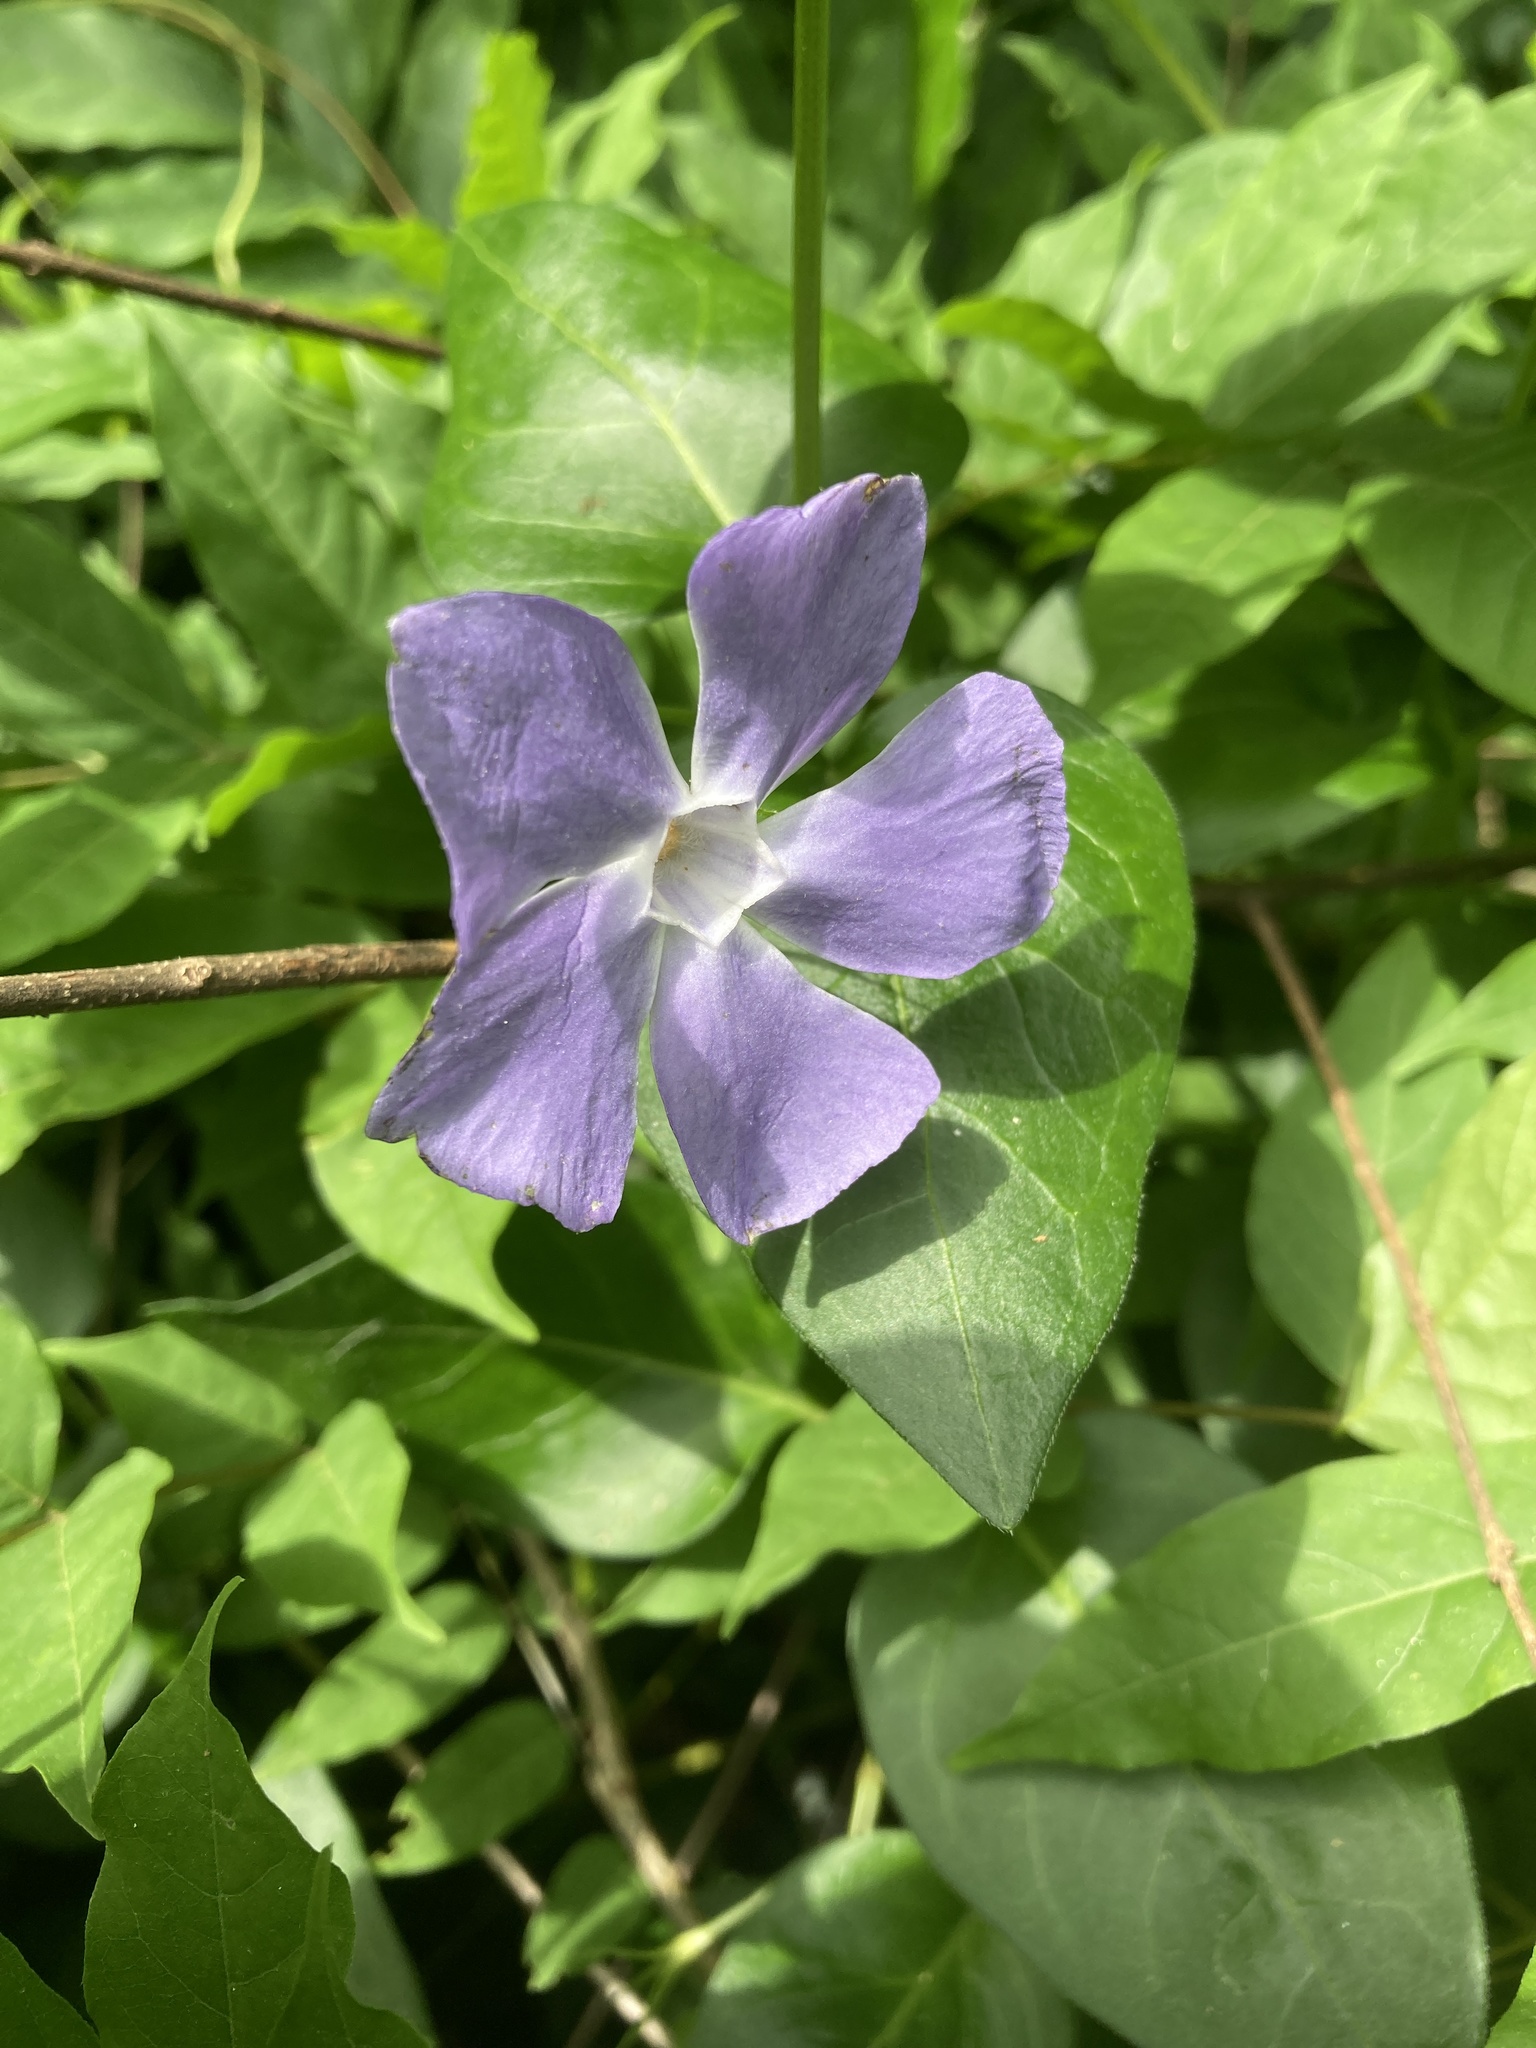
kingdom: Plantae
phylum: Tracheophyta
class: Magnoliopsida
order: Gentianales
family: Apocynaceae
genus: Vinca
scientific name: Vinca major
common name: Greater periwinkle
